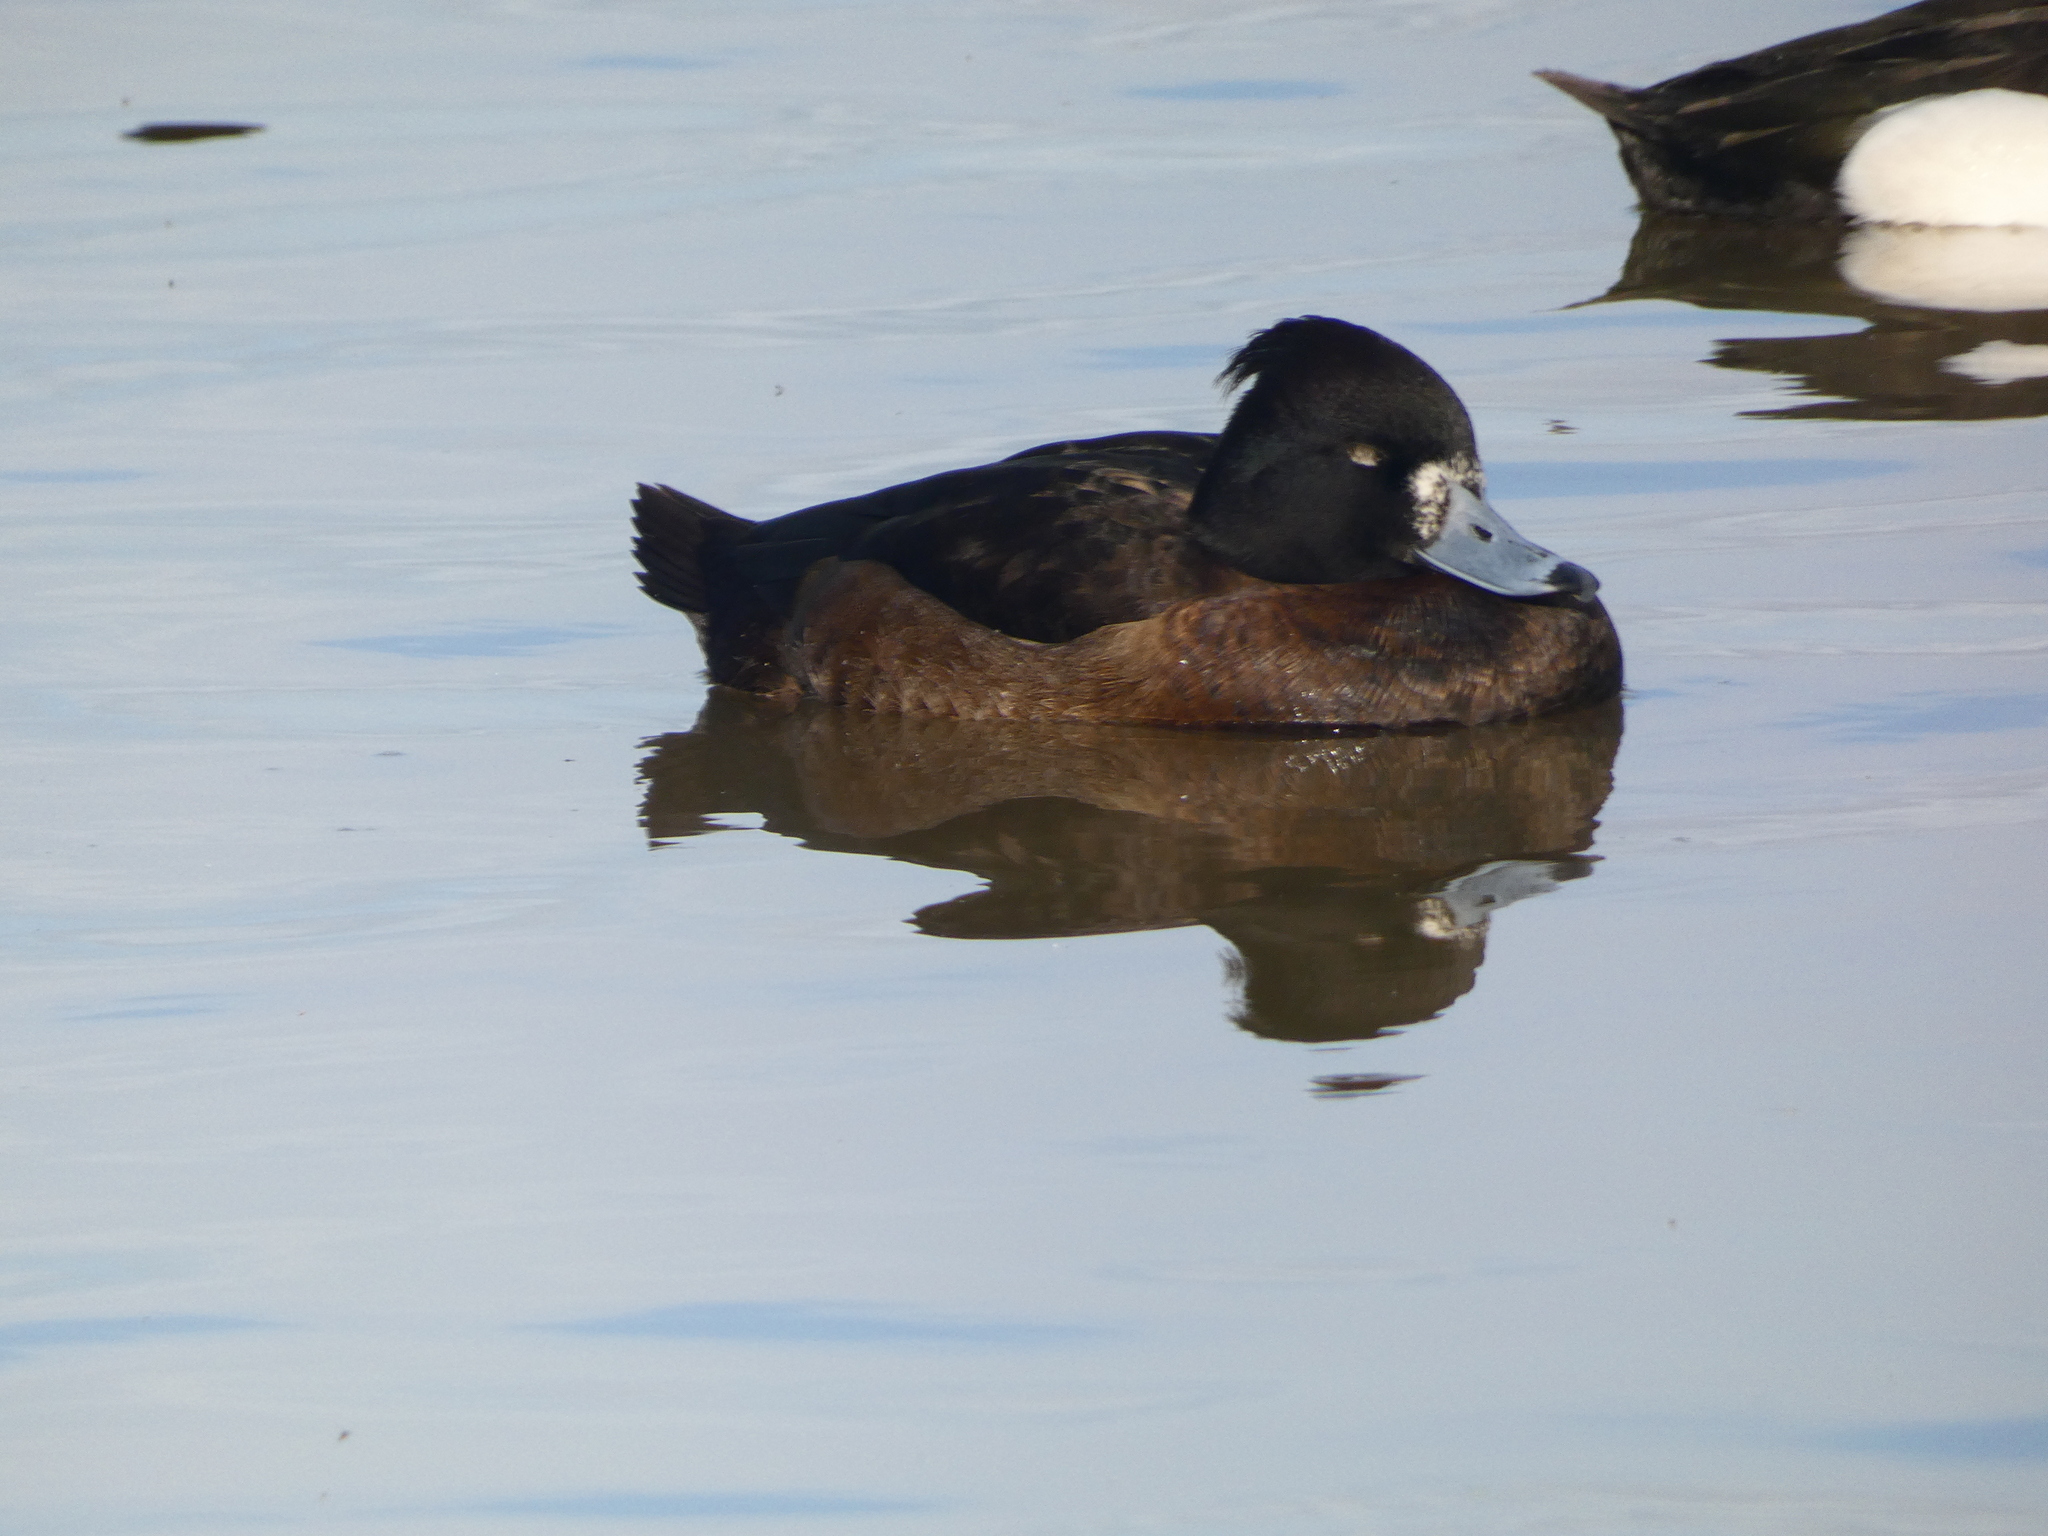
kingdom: Animalia
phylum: Chordata
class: Aves
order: Anseriformes
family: Anatidae
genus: Aythya
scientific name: Aythya fuligula
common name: Tufted duck
